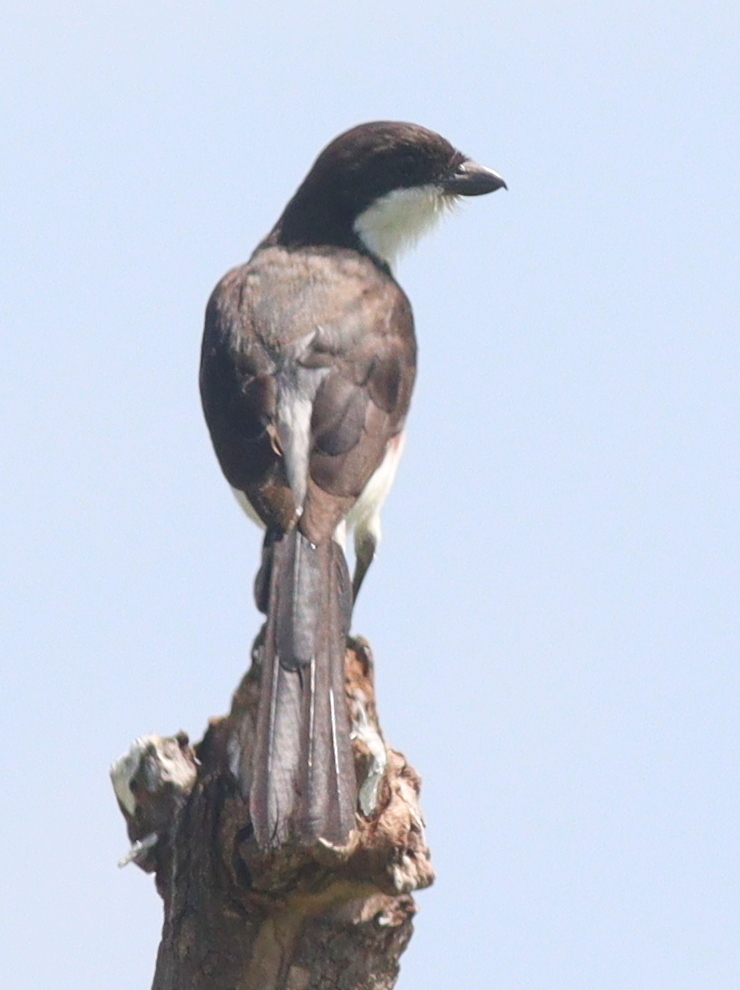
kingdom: Animalia
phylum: Chordata
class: Aves
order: Passeriformes
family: Laniidae
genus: Lanius
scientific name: Lanius cabanisi
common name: Long-tailed fiscal
